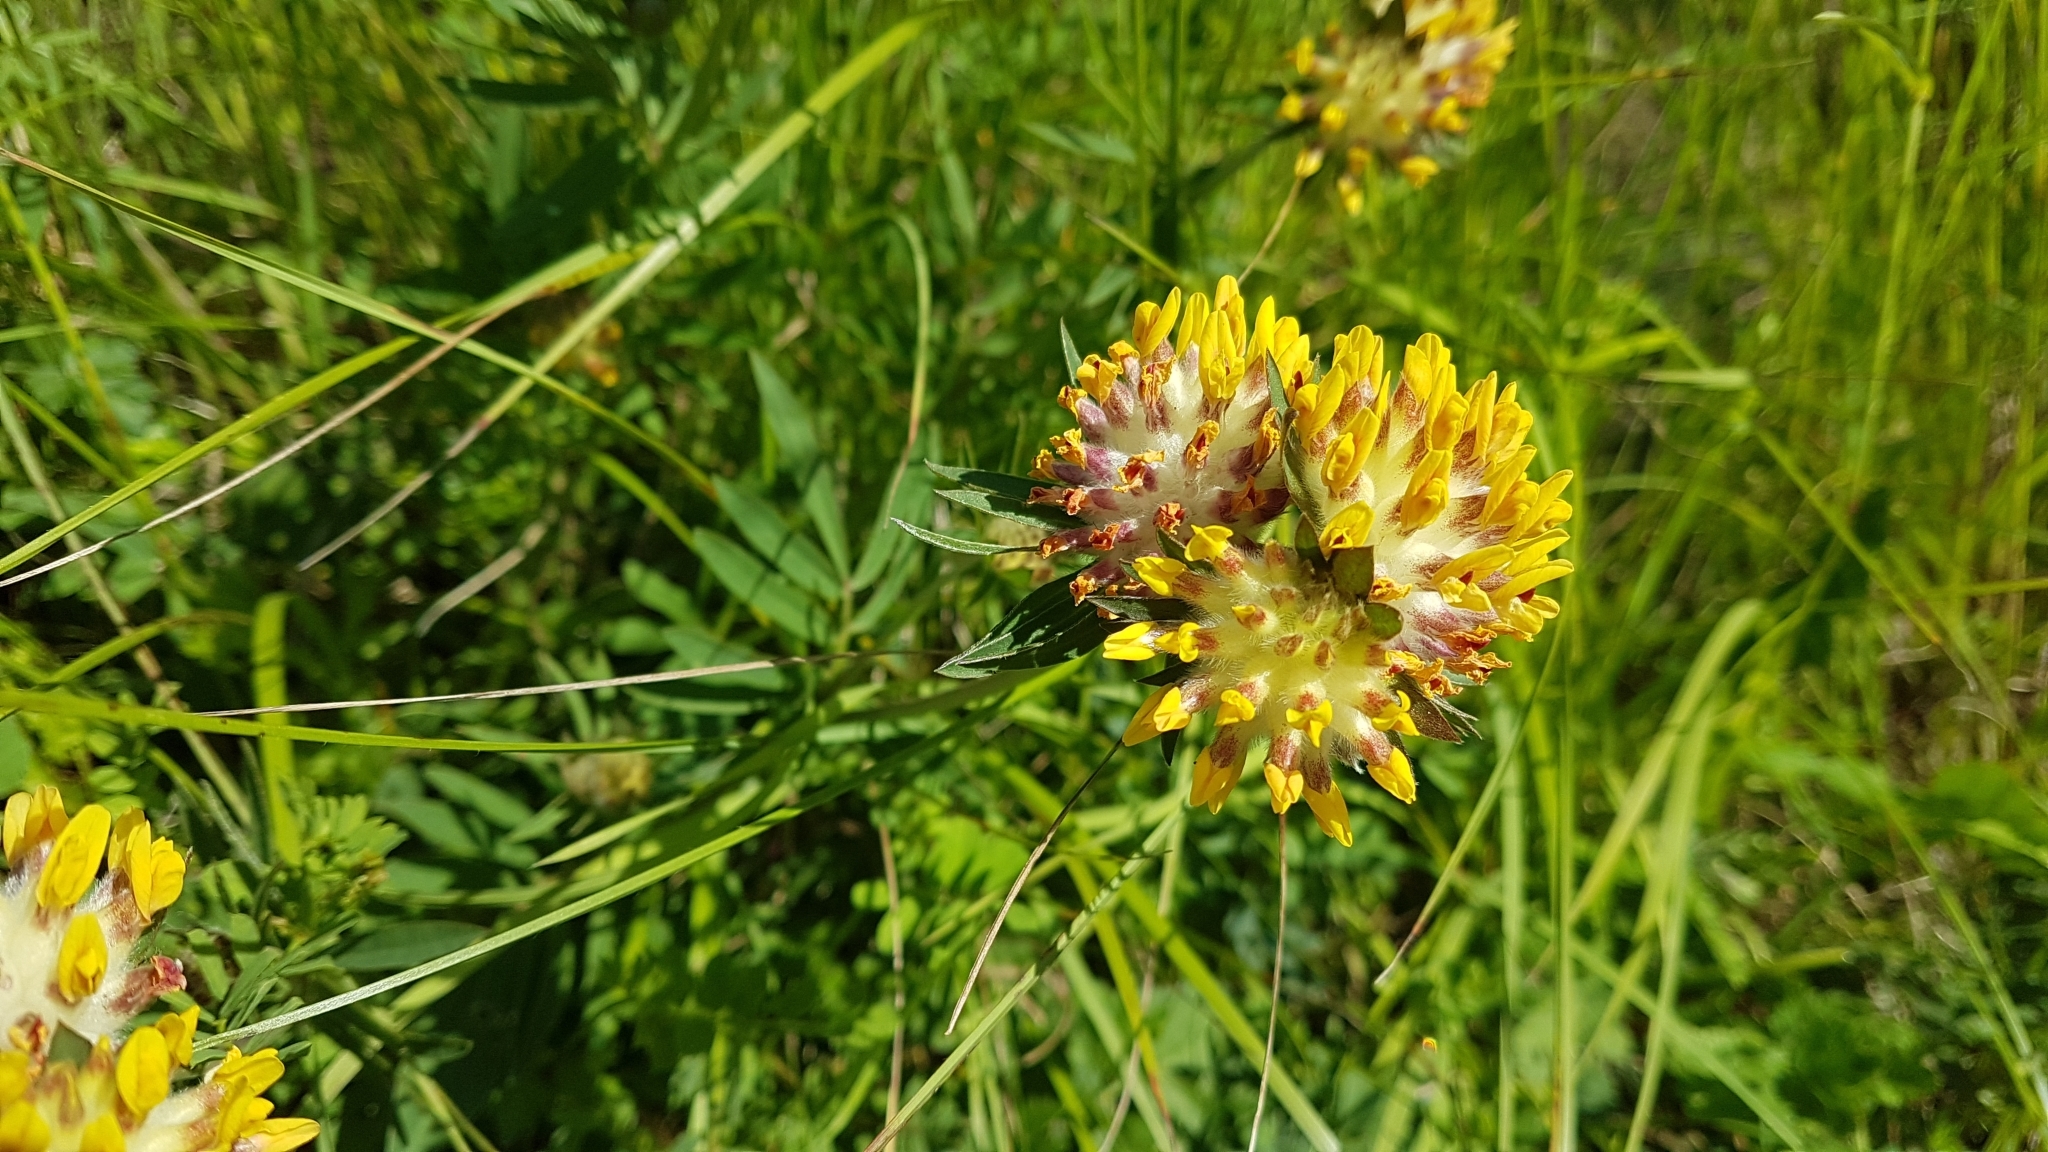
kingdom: Plantae
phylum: Tracheophyta
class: Magnoliopsida
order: Fabales
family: Fabaceae
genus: Anthyllis
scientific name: Anthyllis vulneraria
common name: Kidney vetch
